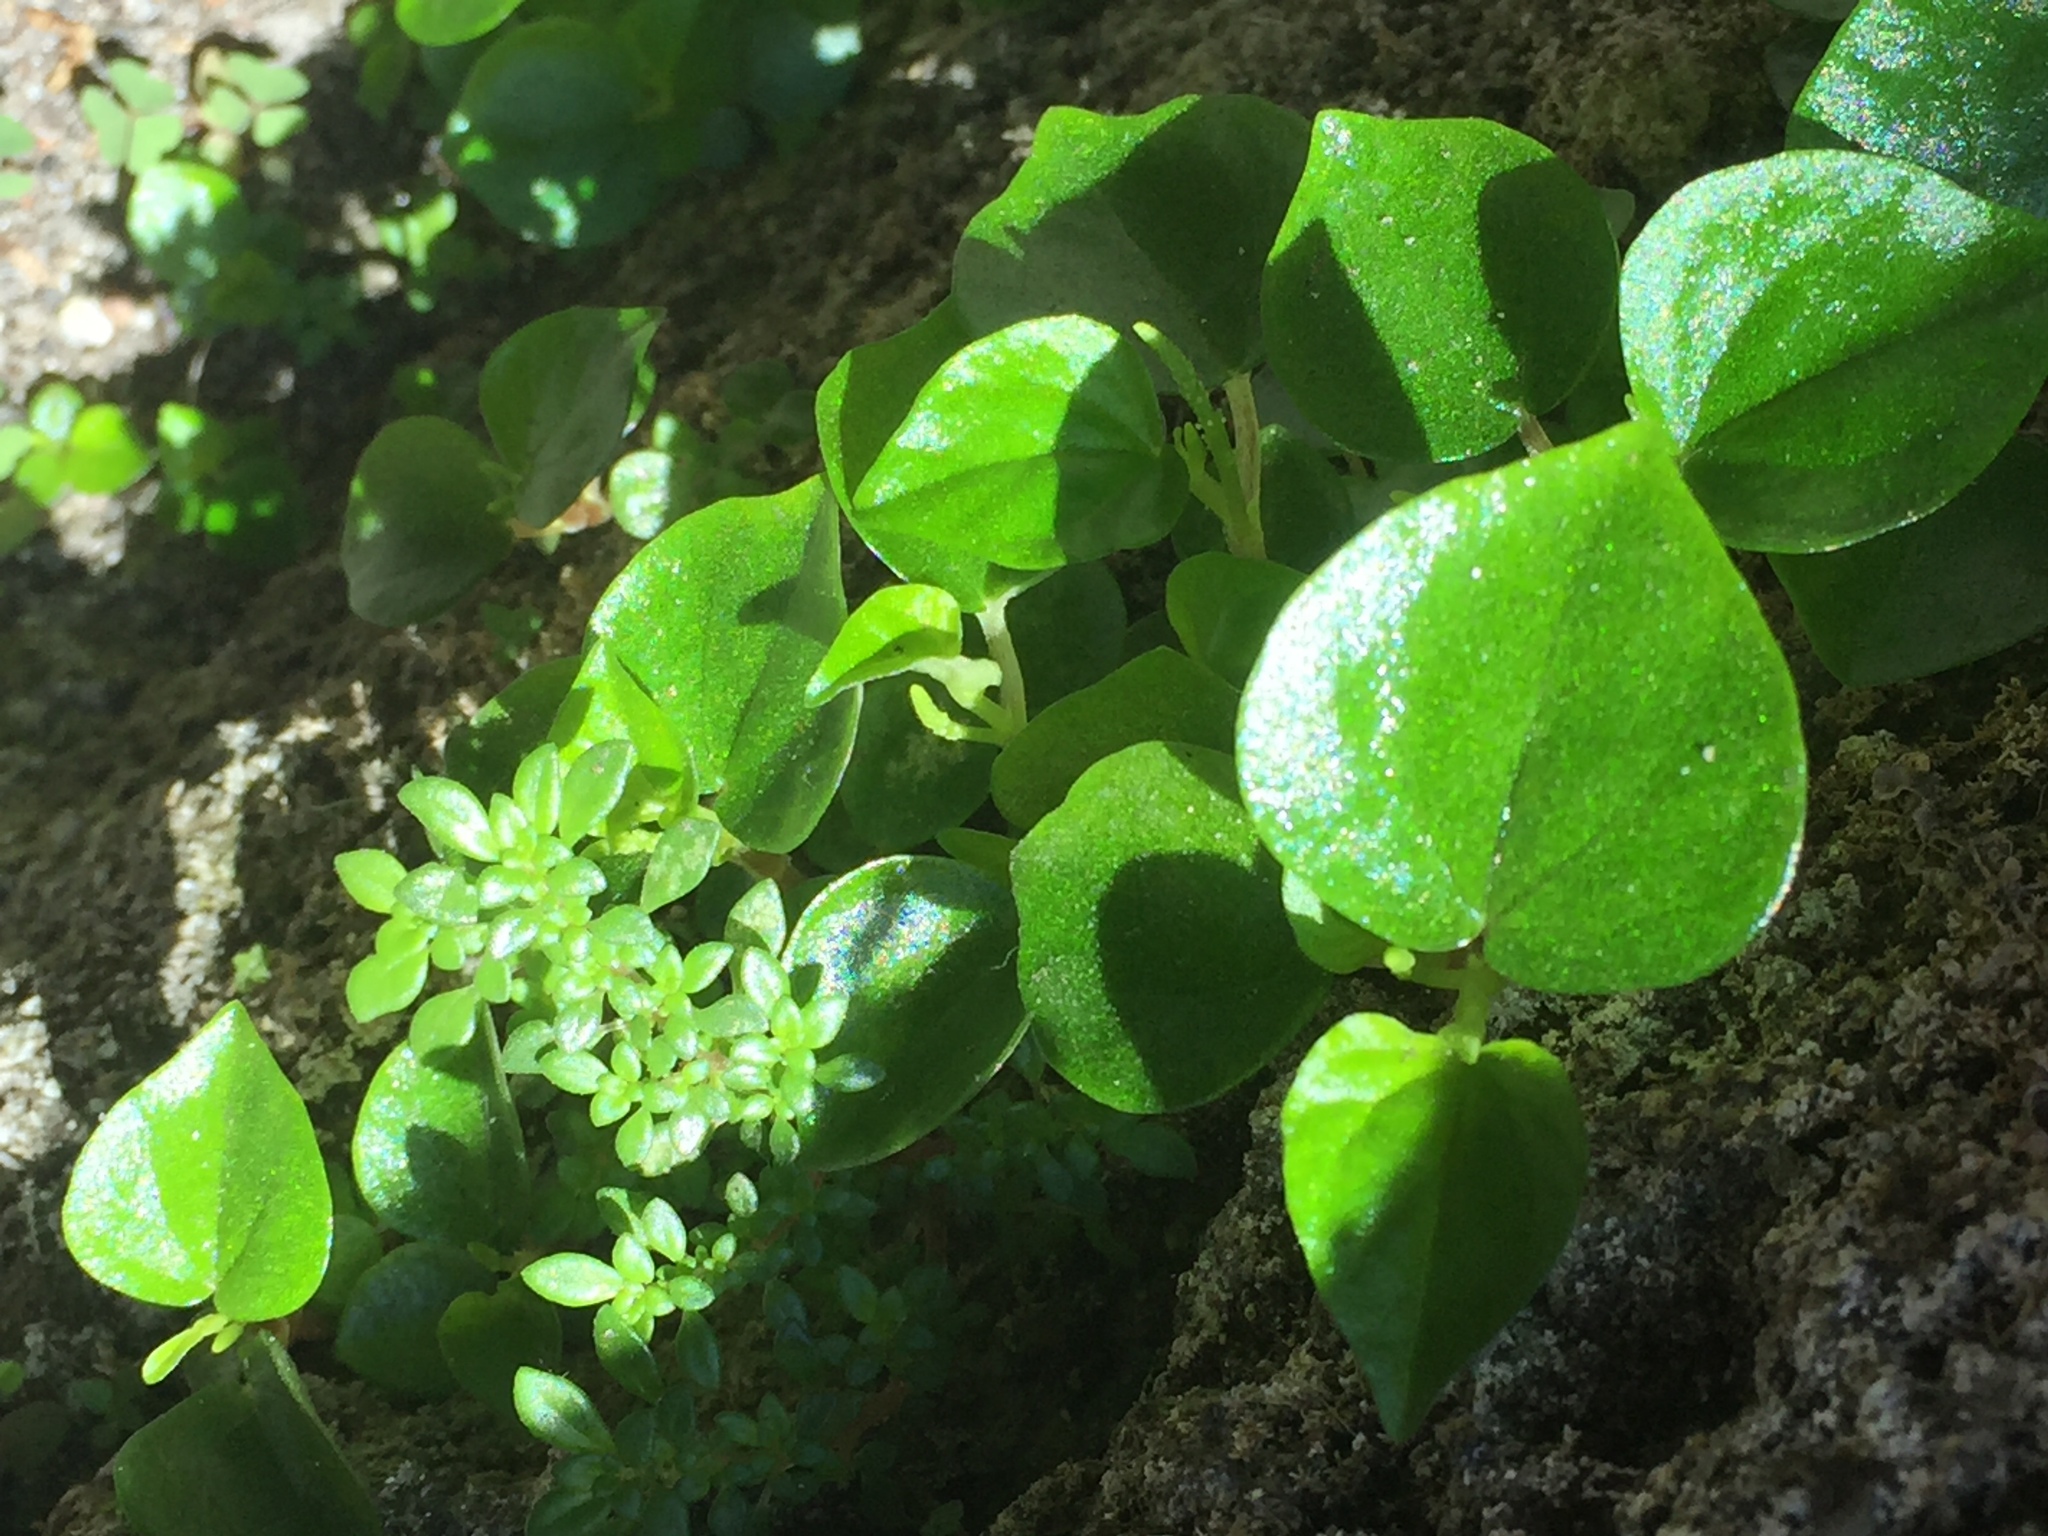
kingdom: Plantae
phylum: Tracheophyta
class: Magnoliopsida
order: Piperales
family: Piperaceae
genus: Peperomia
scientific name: Peperomia pellucida
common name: Man to man
